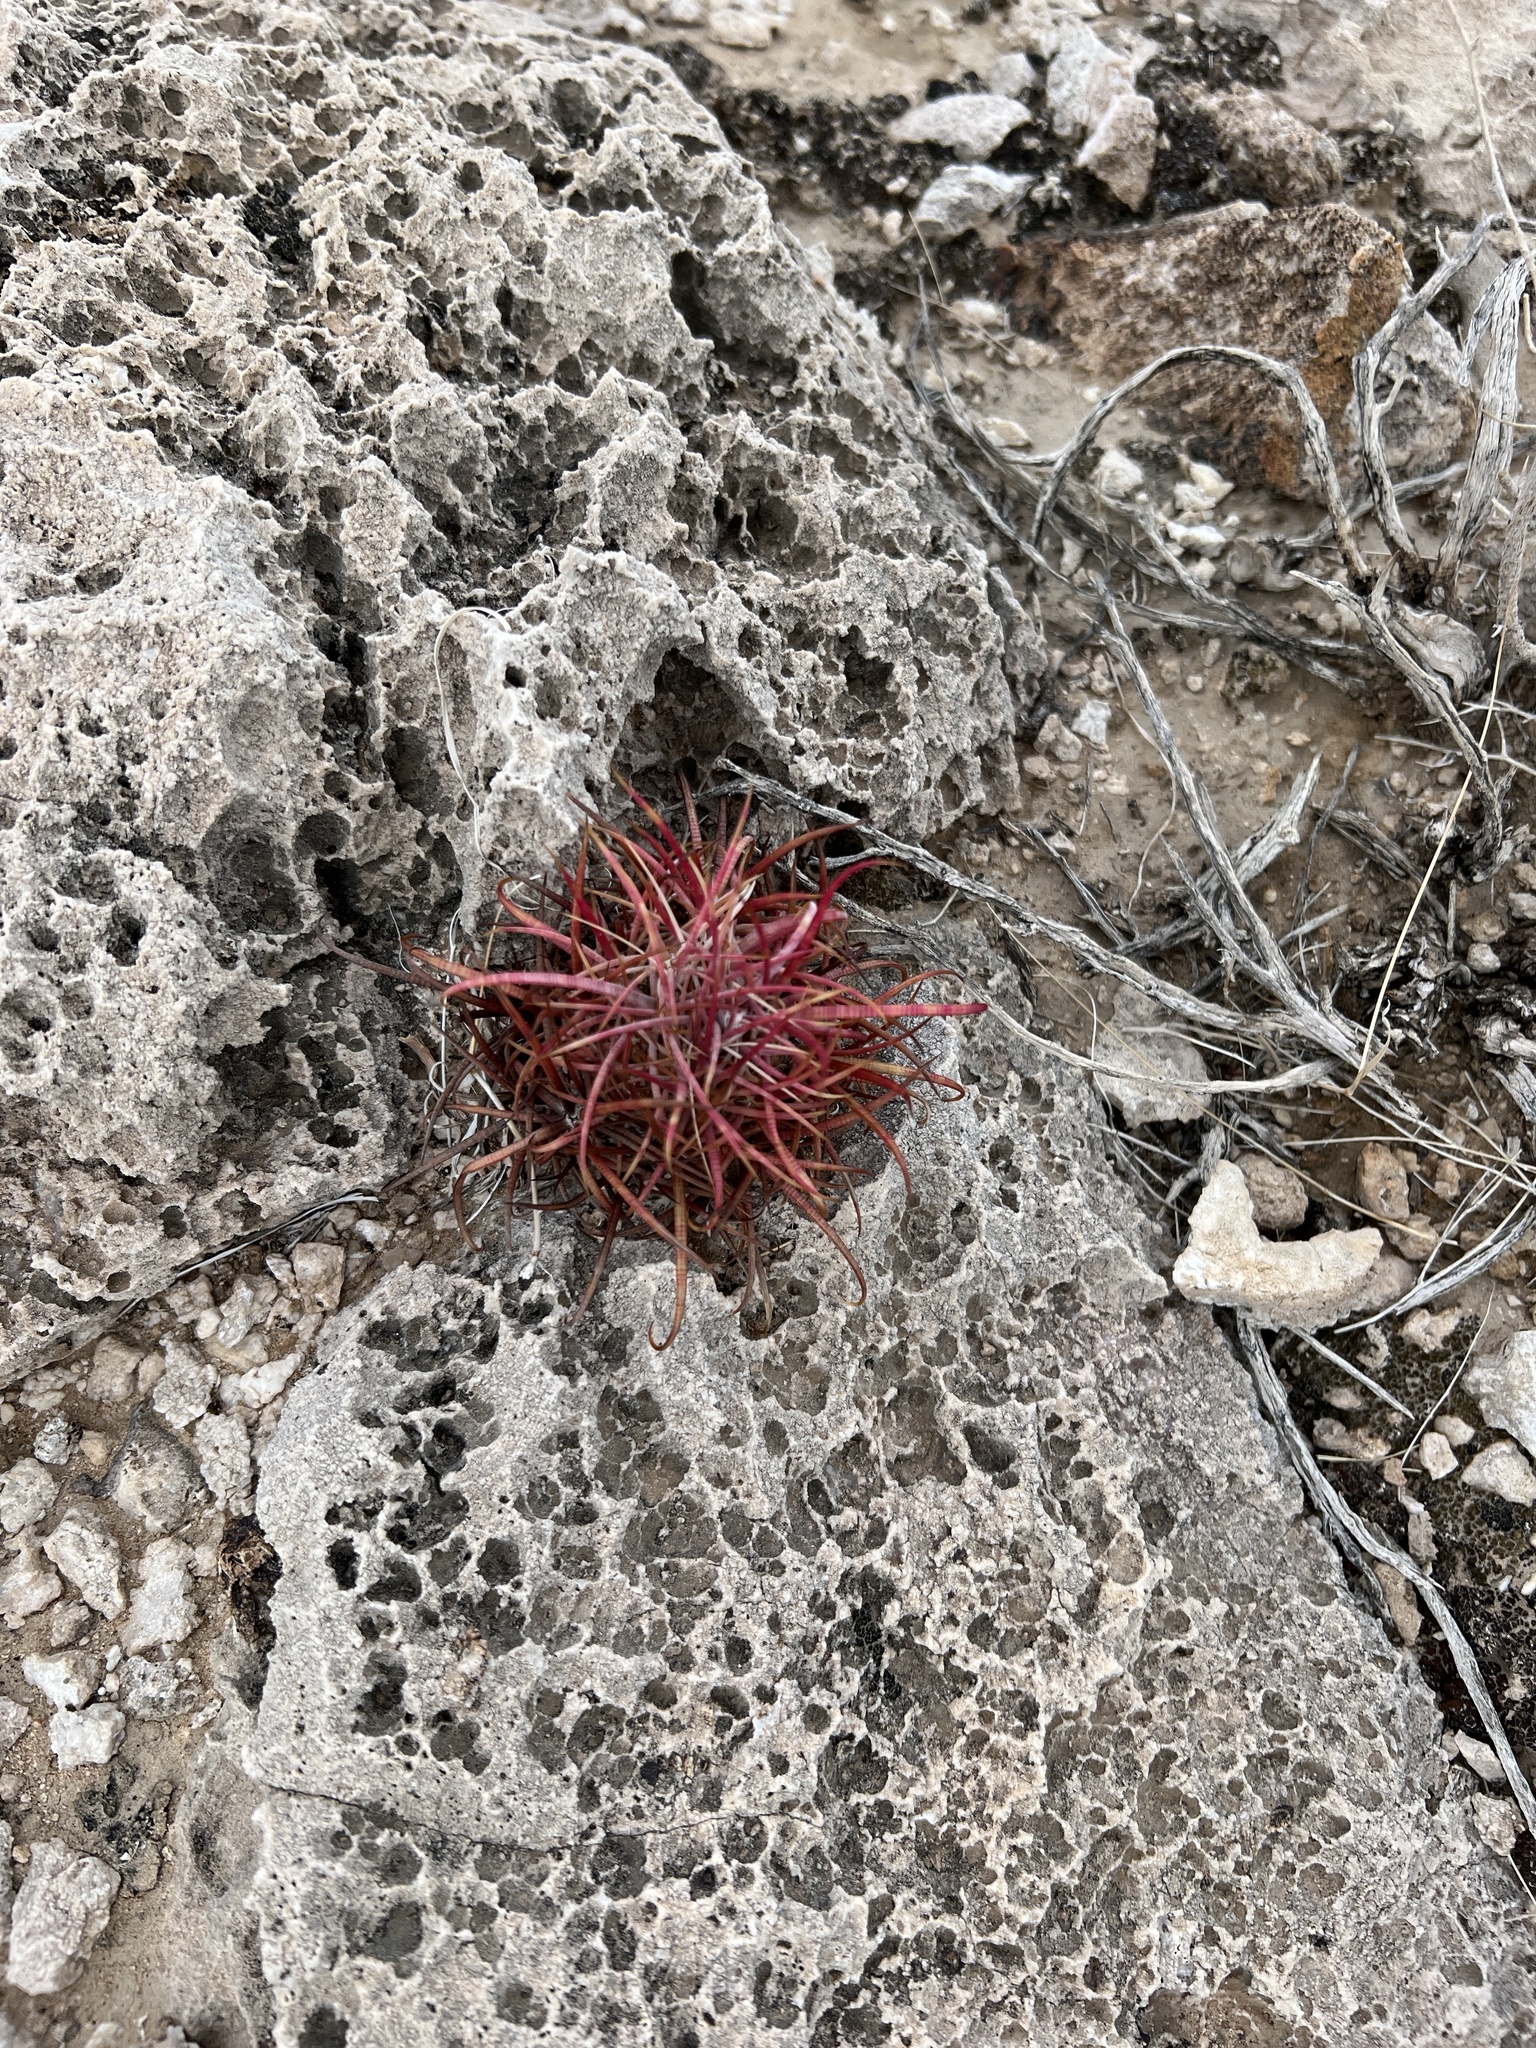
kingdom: Plantae
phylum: Tracheophyta
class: Magnoliopsida
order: Caryophyllales
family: Cactaceae
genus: Ferocactus
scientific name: Ferocactus cylindraceus
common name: California barrel cactus
